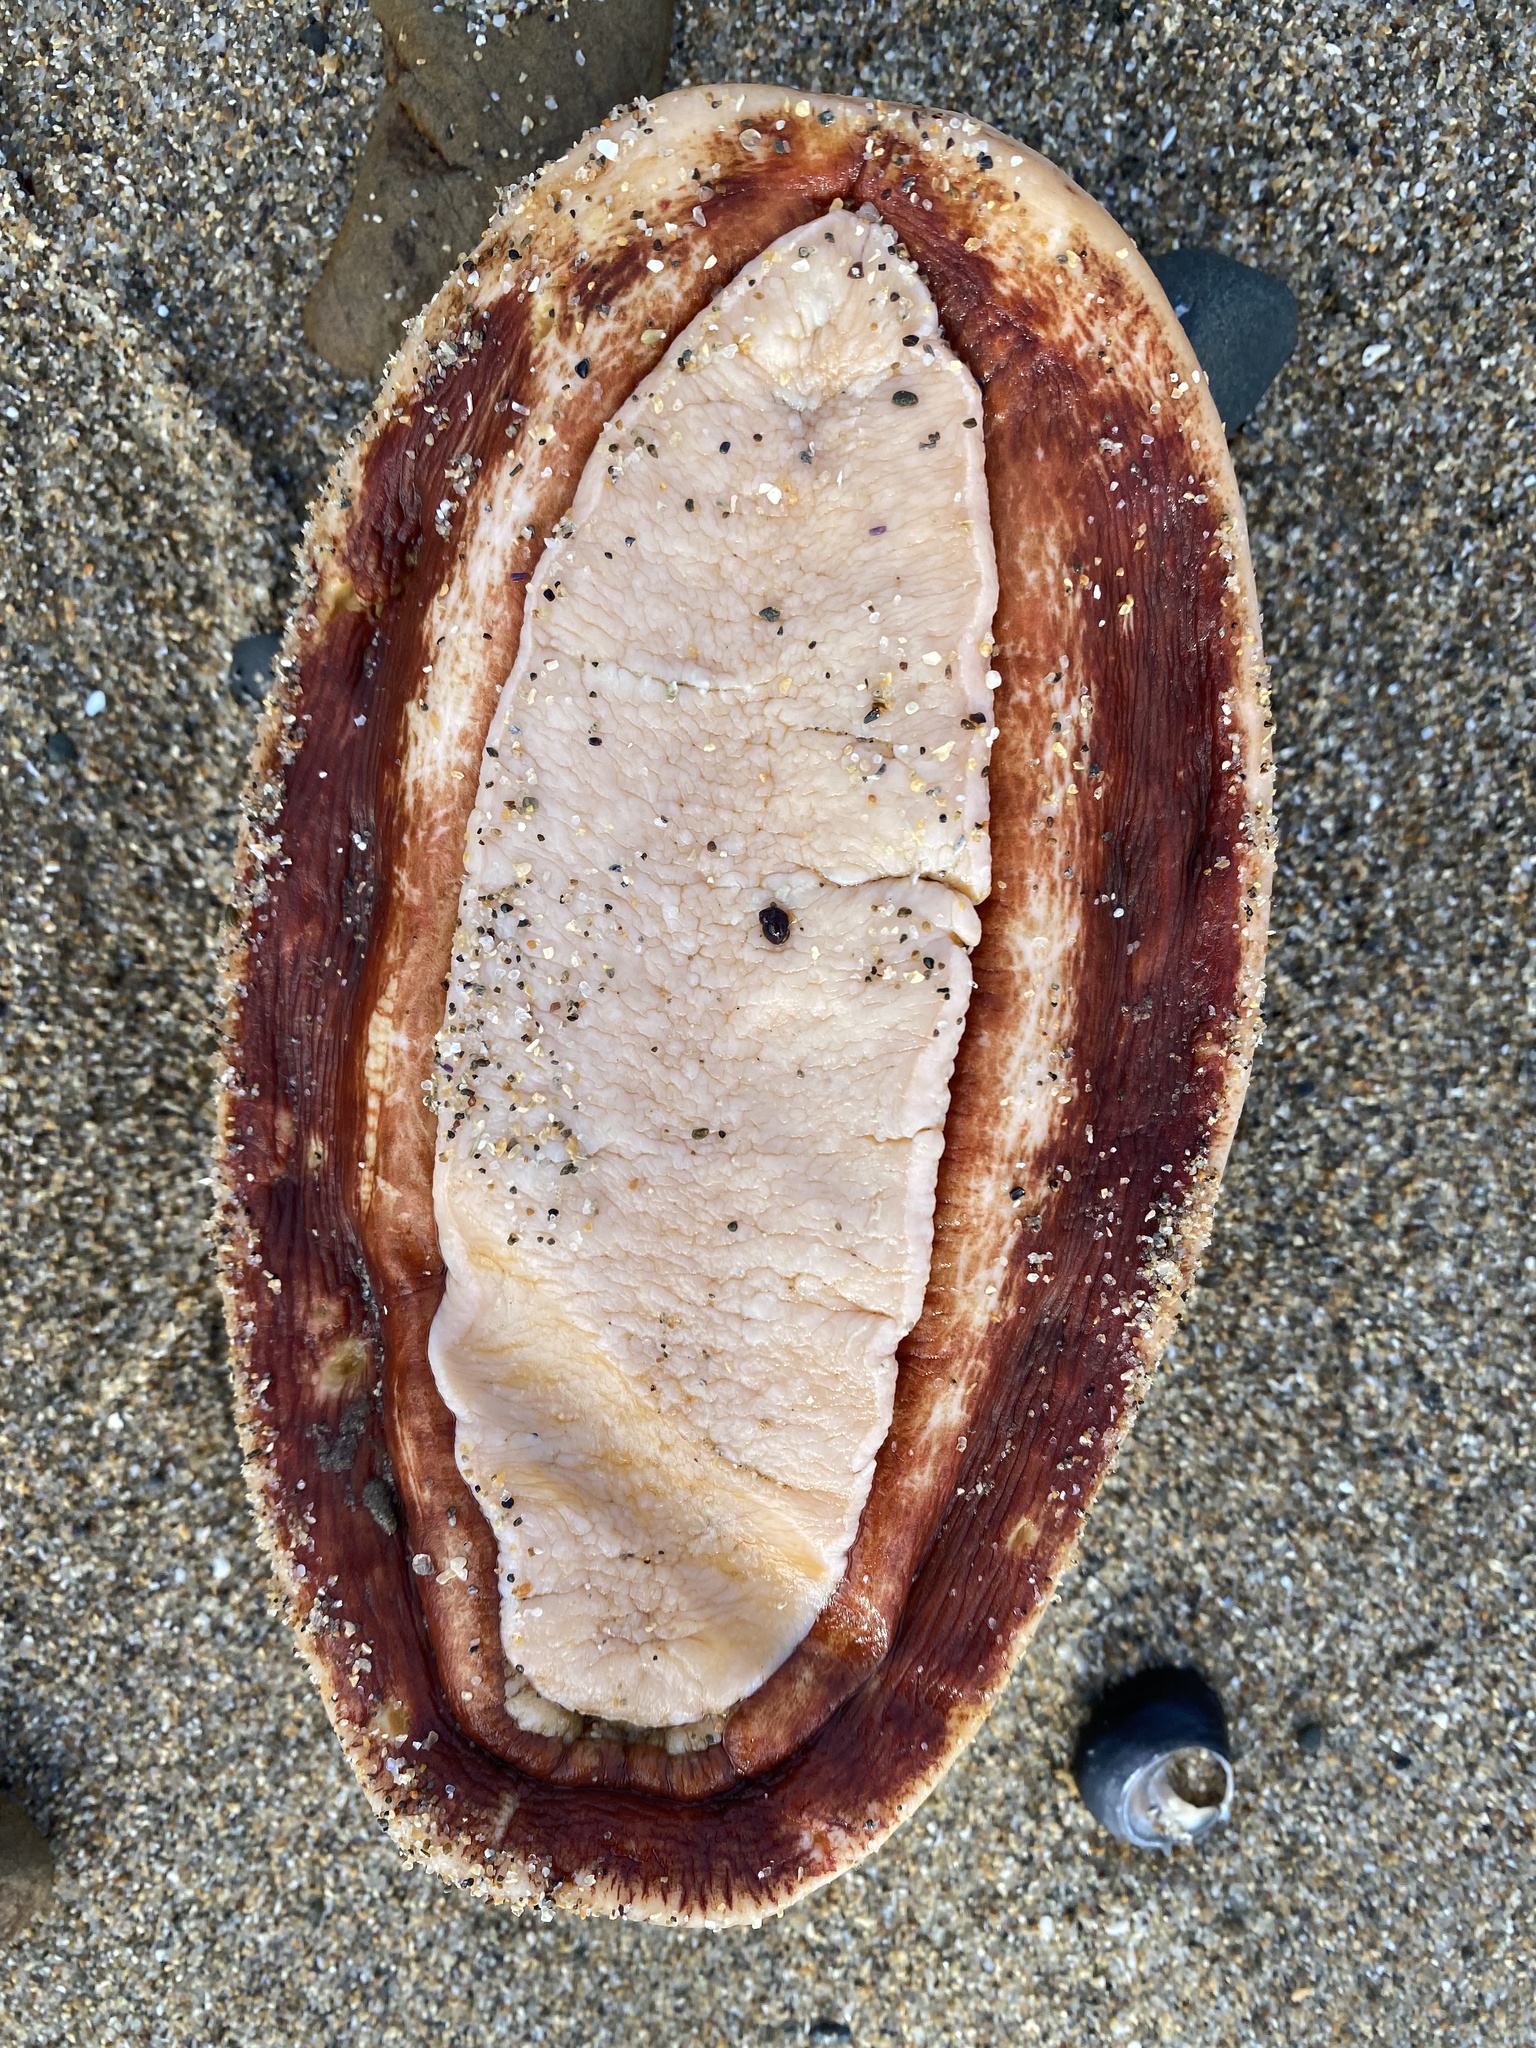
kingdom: Animalia
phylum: Mollusca
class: Polyplacophora
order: Chitonida
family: Acanthochitonidae
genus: Cryptochiton
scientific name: Cryptochiton stelleri
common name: Giant pacific chiton
